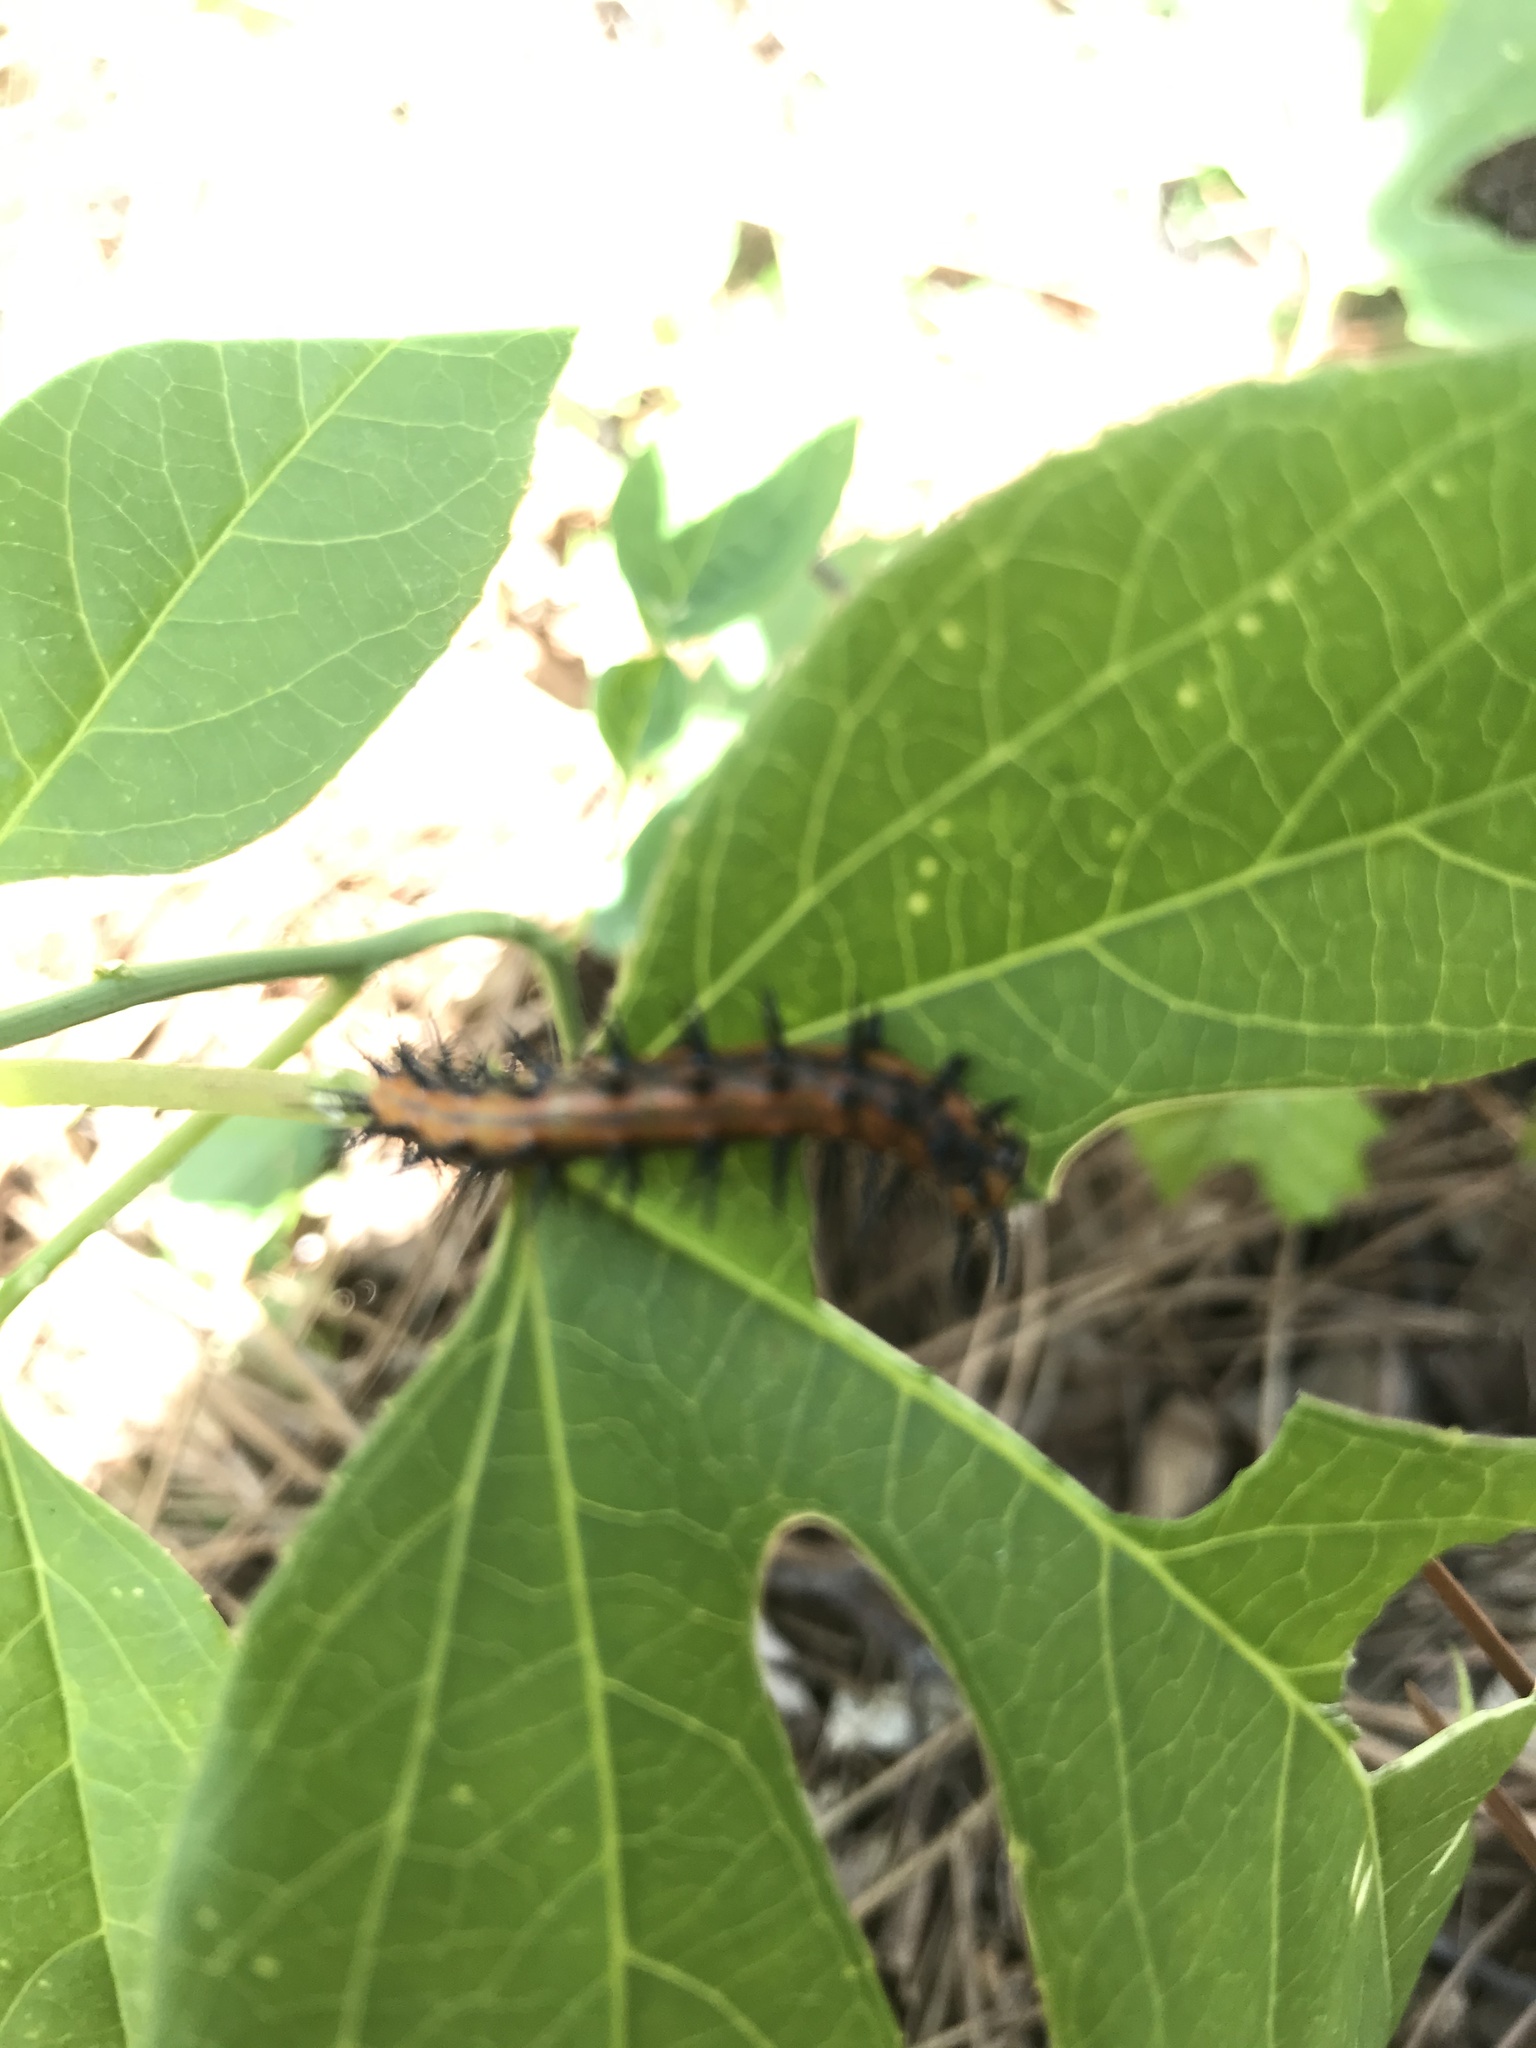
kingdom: Animalia
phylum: Arthropoda
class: Insecta
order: Lepidoptera
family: Nymphalidae
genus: Dione
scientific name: Dione vanillae
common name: Gulf fritillary
